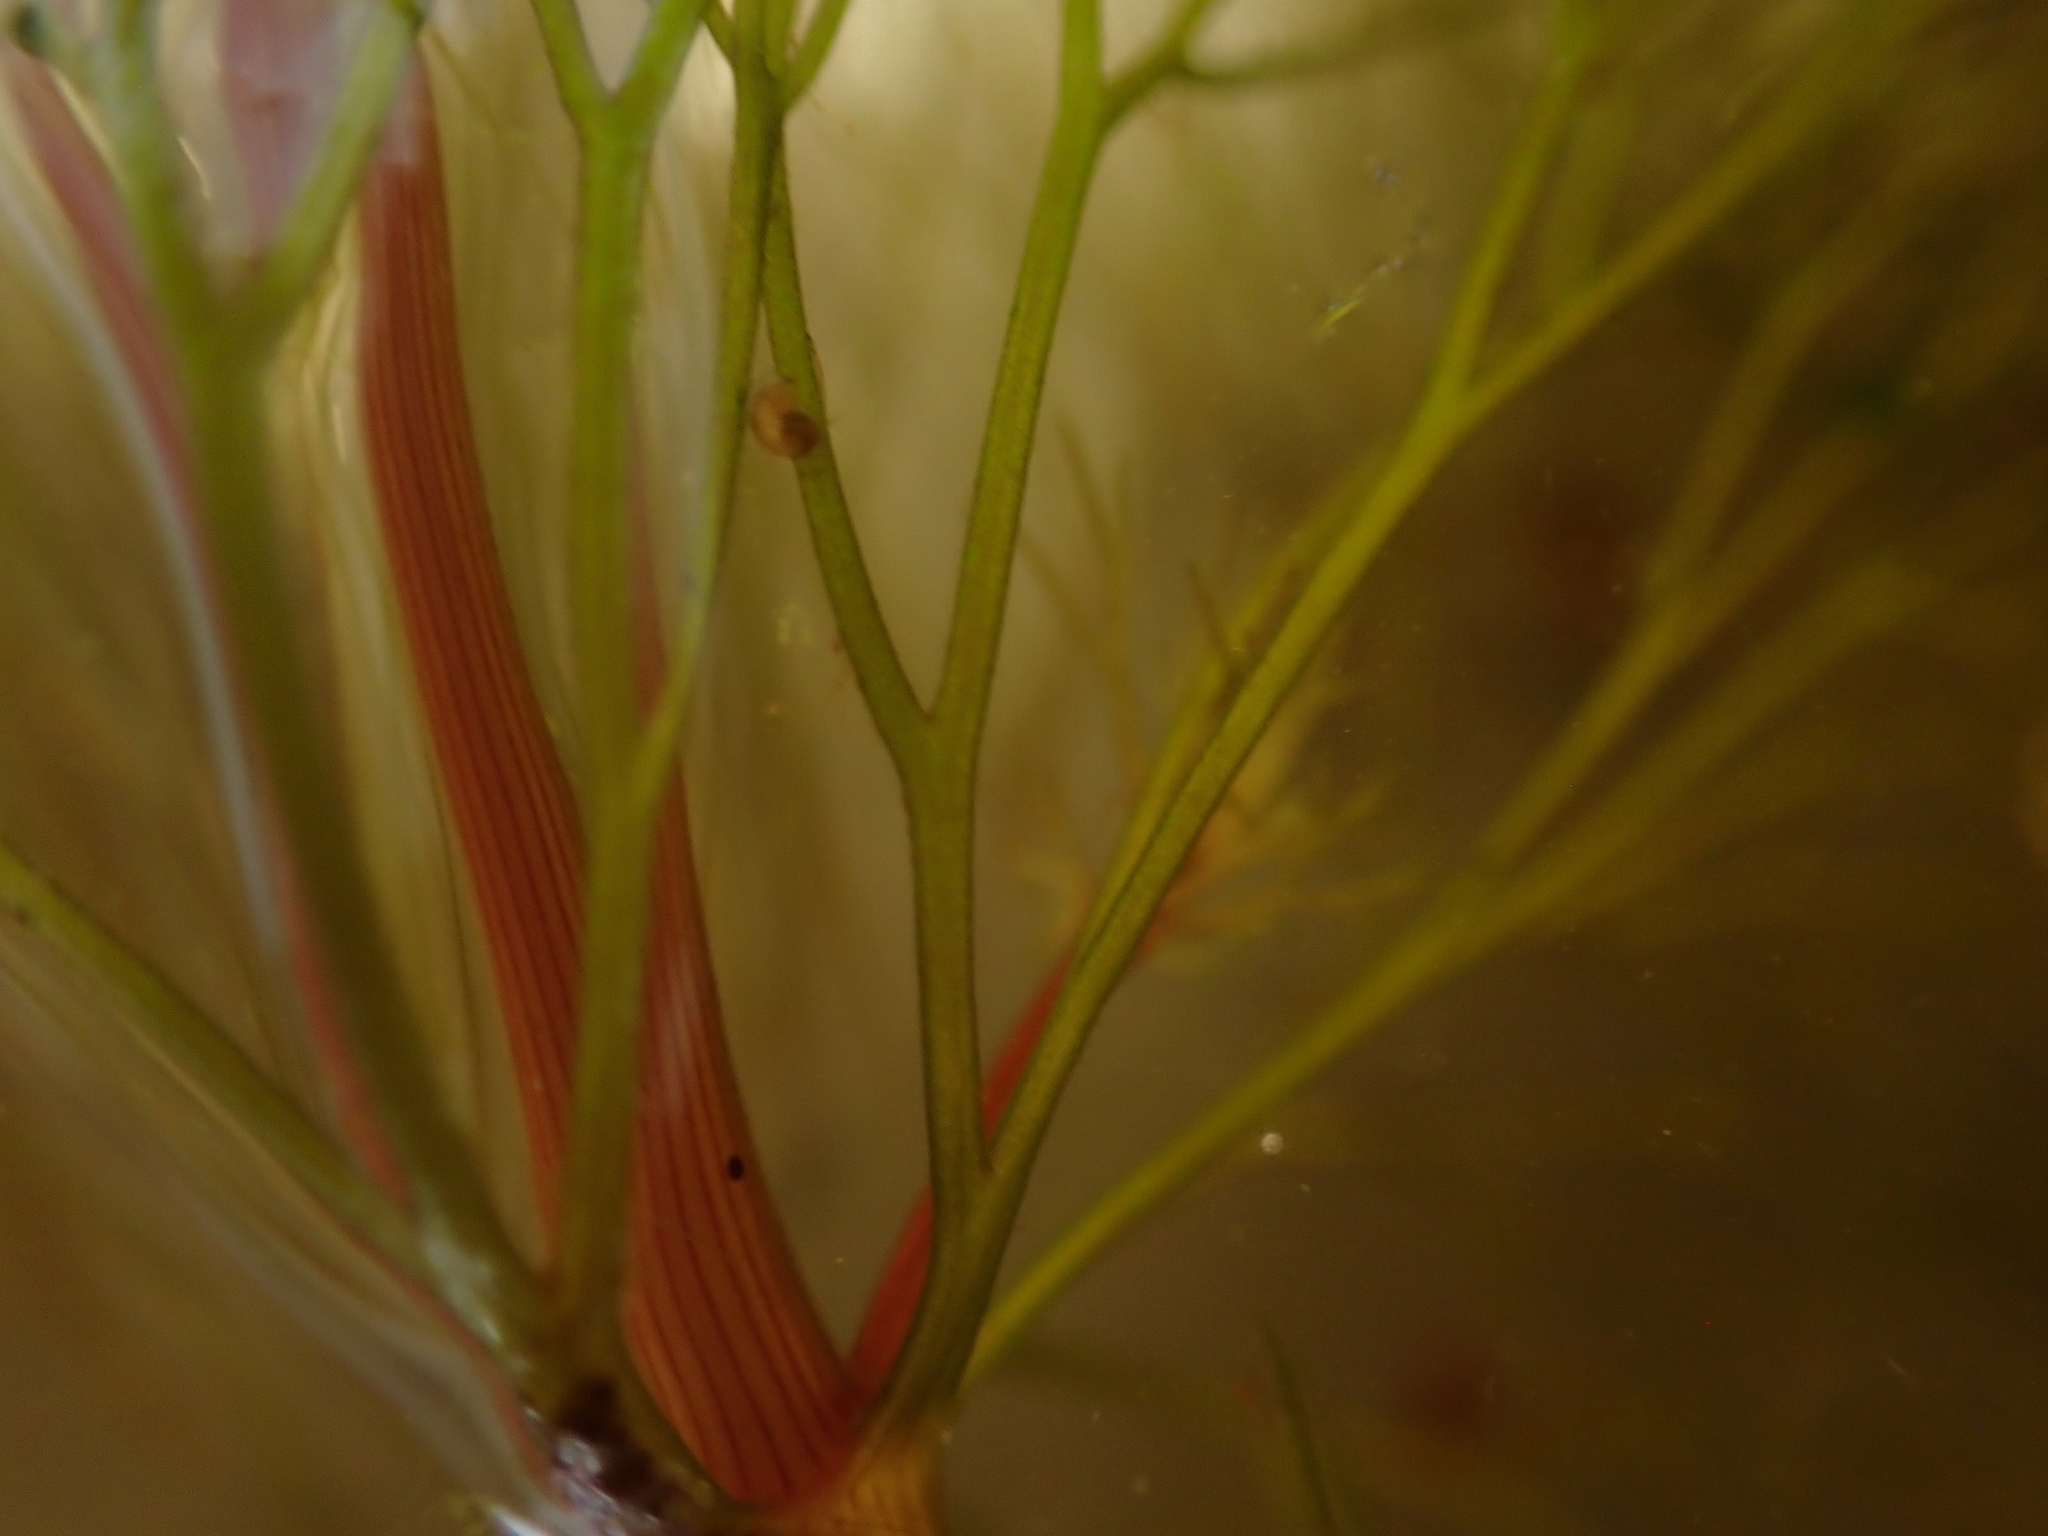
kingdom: Plantae
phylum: Tracheophyta
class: Magnoliopsida
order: Asterales
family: Asteraceae
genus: Bidens
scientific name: Bidens beckii
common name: Beck's beggarticks
